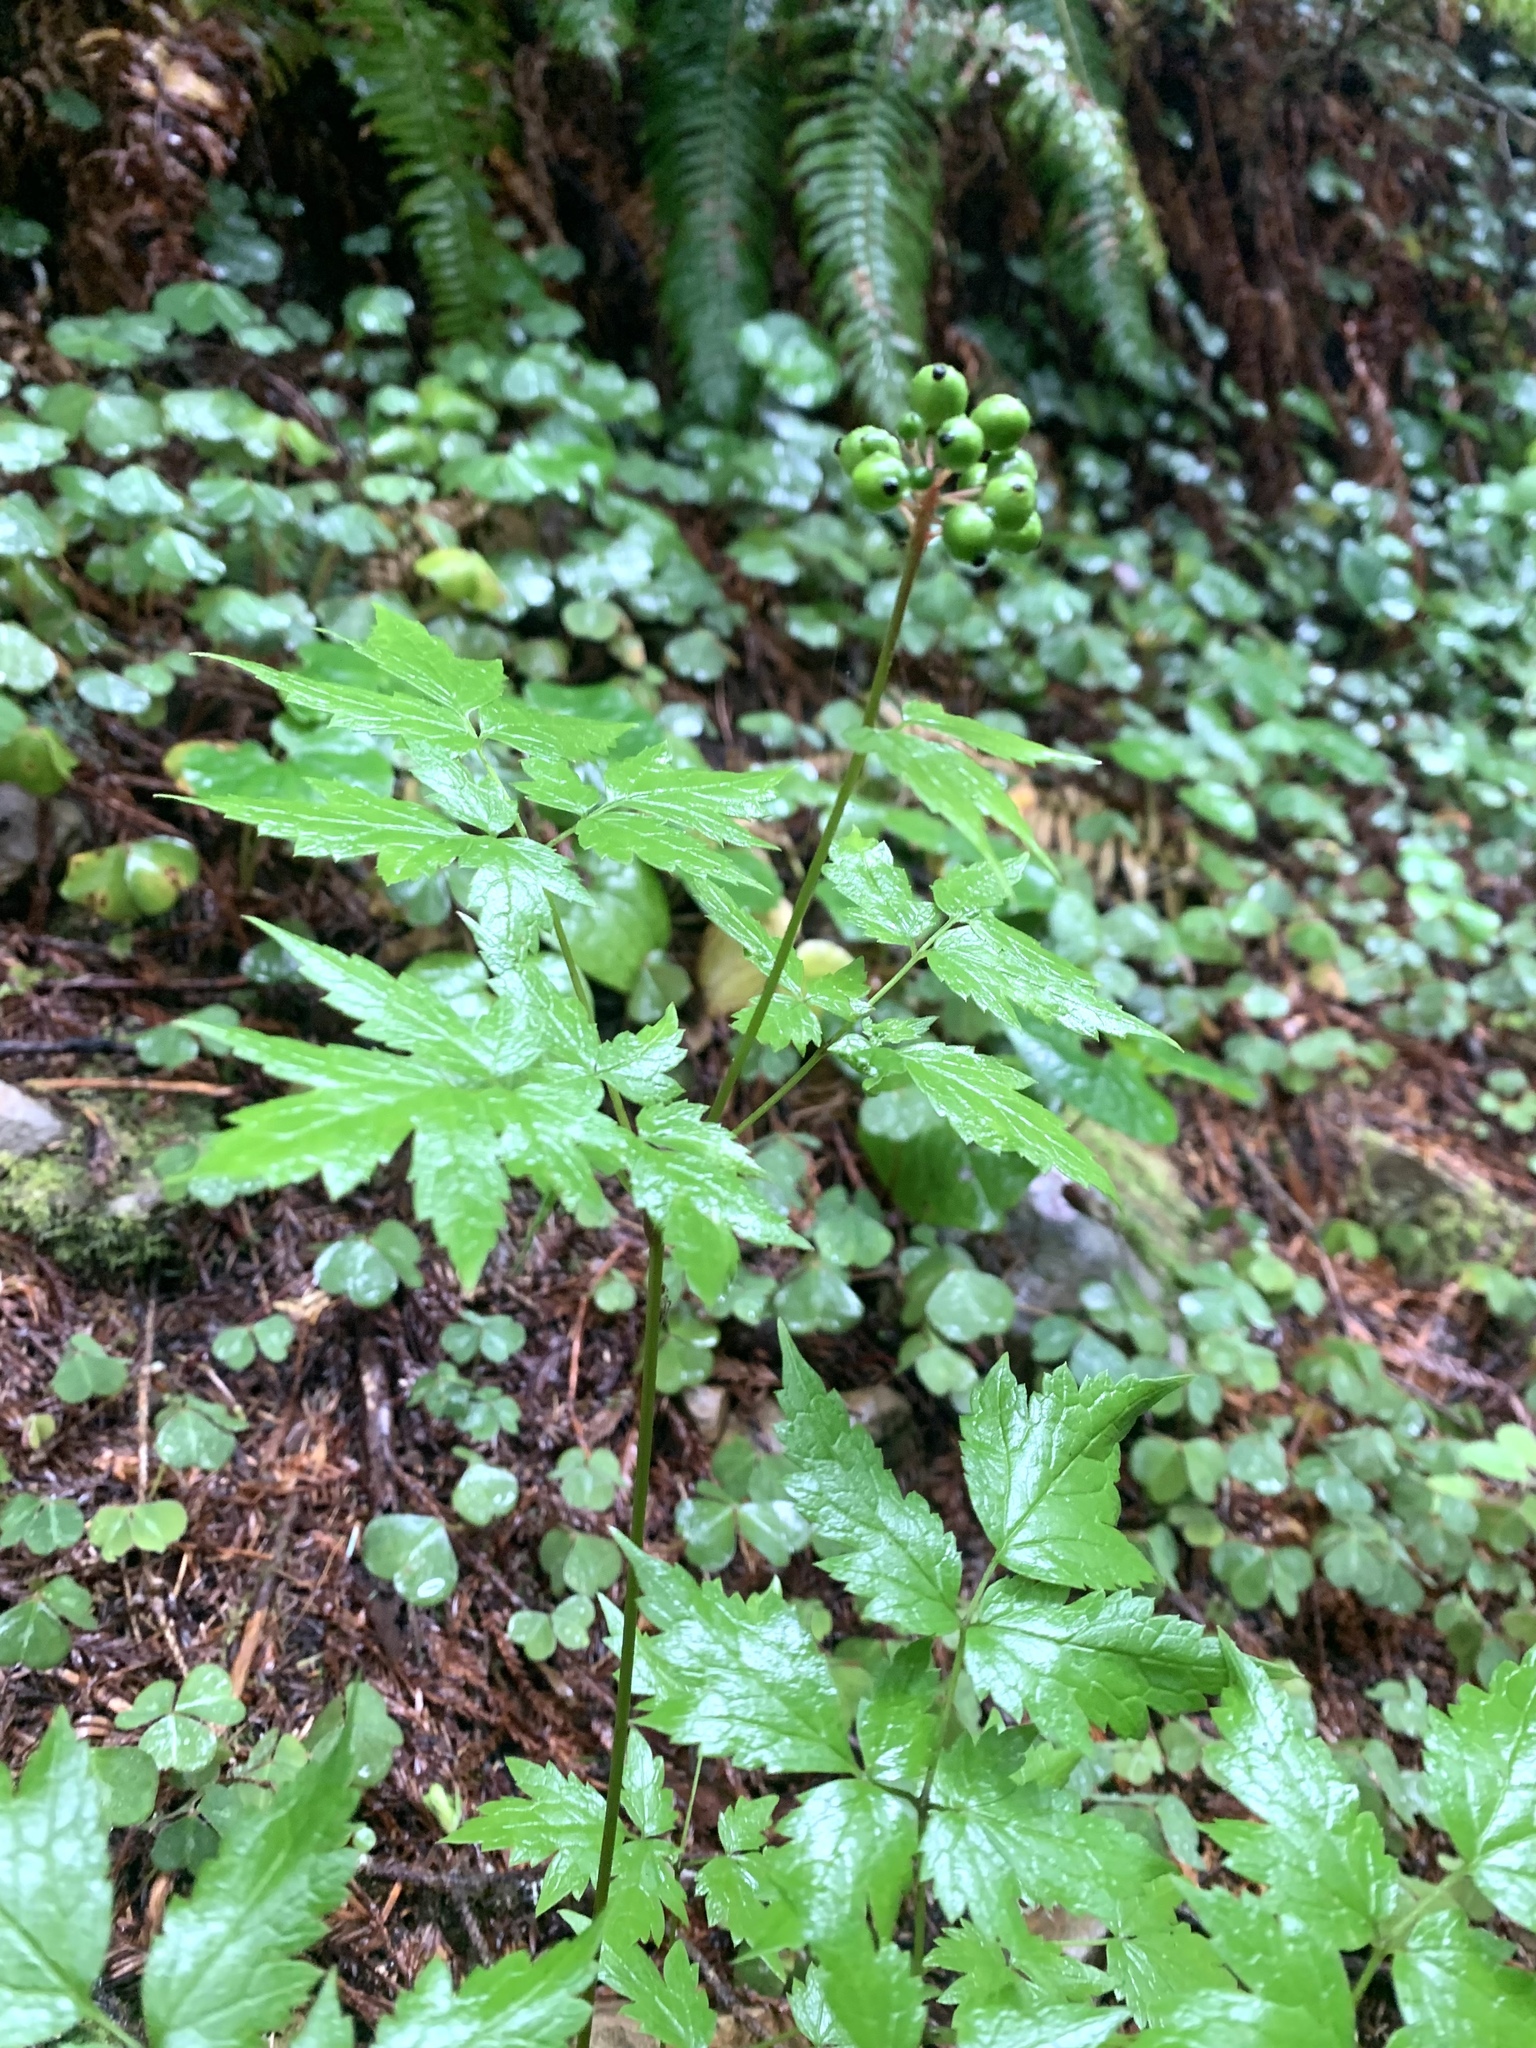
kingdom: Plantae
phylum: Tracheophyta
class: Magnoliopsida
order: Ranunculales
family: Ranunculaceae
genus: Actaea
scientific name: Actaea rubra
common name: Red baneberry
